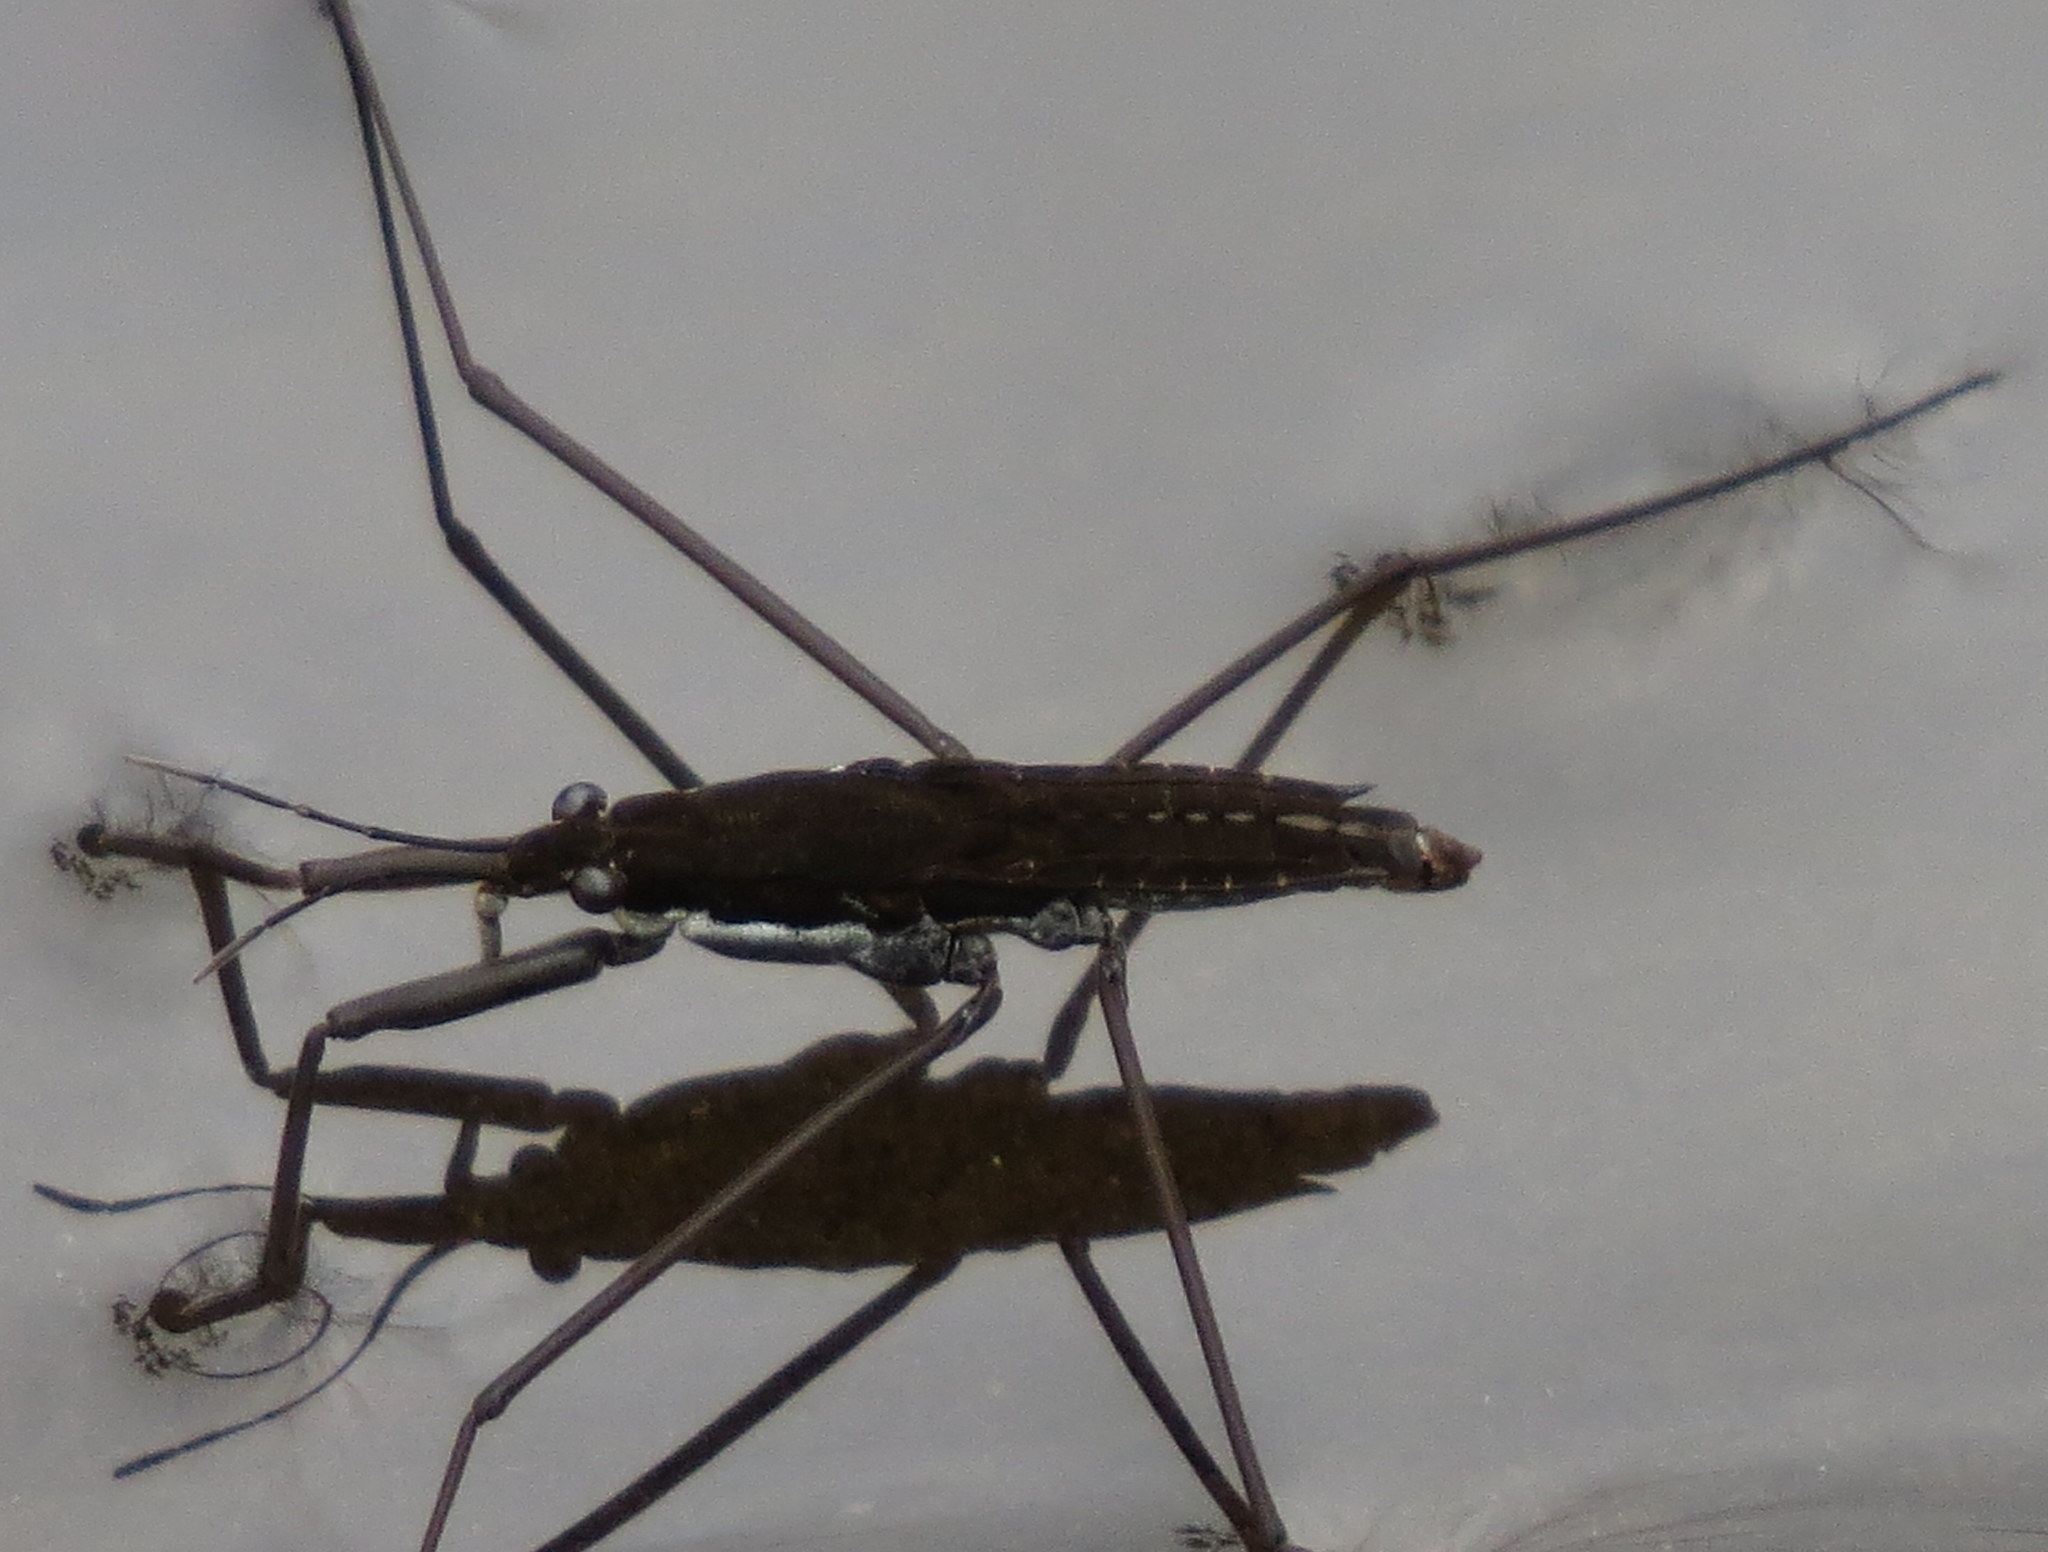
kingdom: Animalia
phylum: Arthropoda
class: Insecta
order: Hemiptera
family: Gerridae
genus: Aquarius
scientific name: Aquarius remigis
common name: Common water strider
